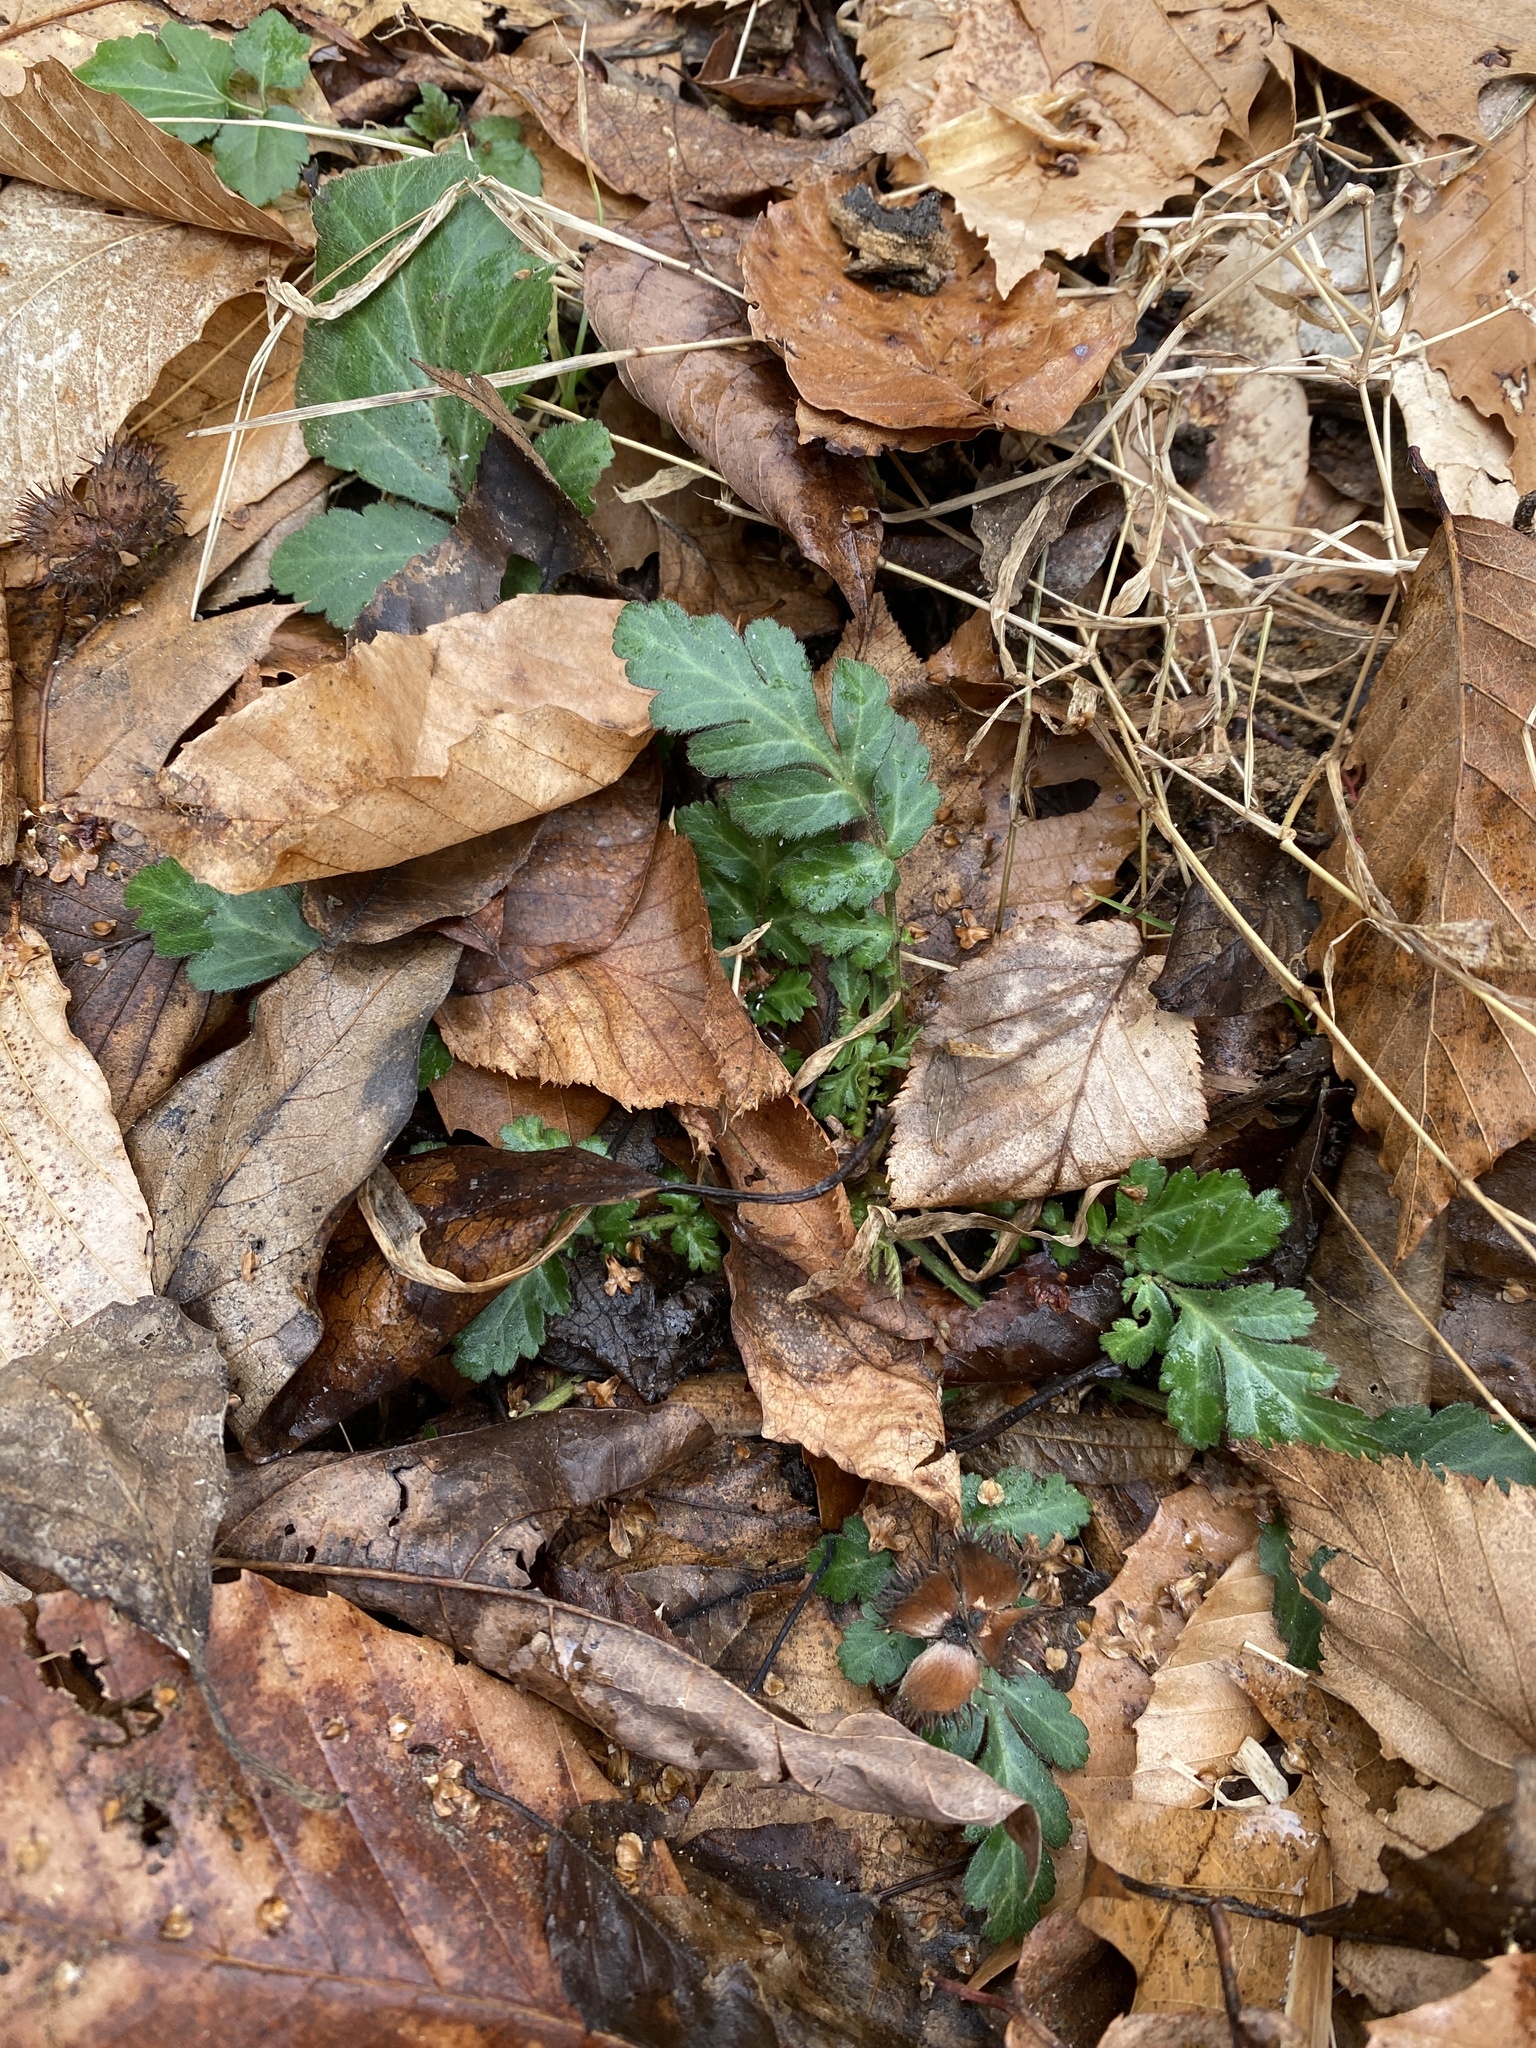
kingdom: Plantae
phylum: Tracheophyta
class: Magnoliopsida
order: Rosales
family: Rosaceae
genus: Geum
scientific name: Geum canadense
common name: White avens
